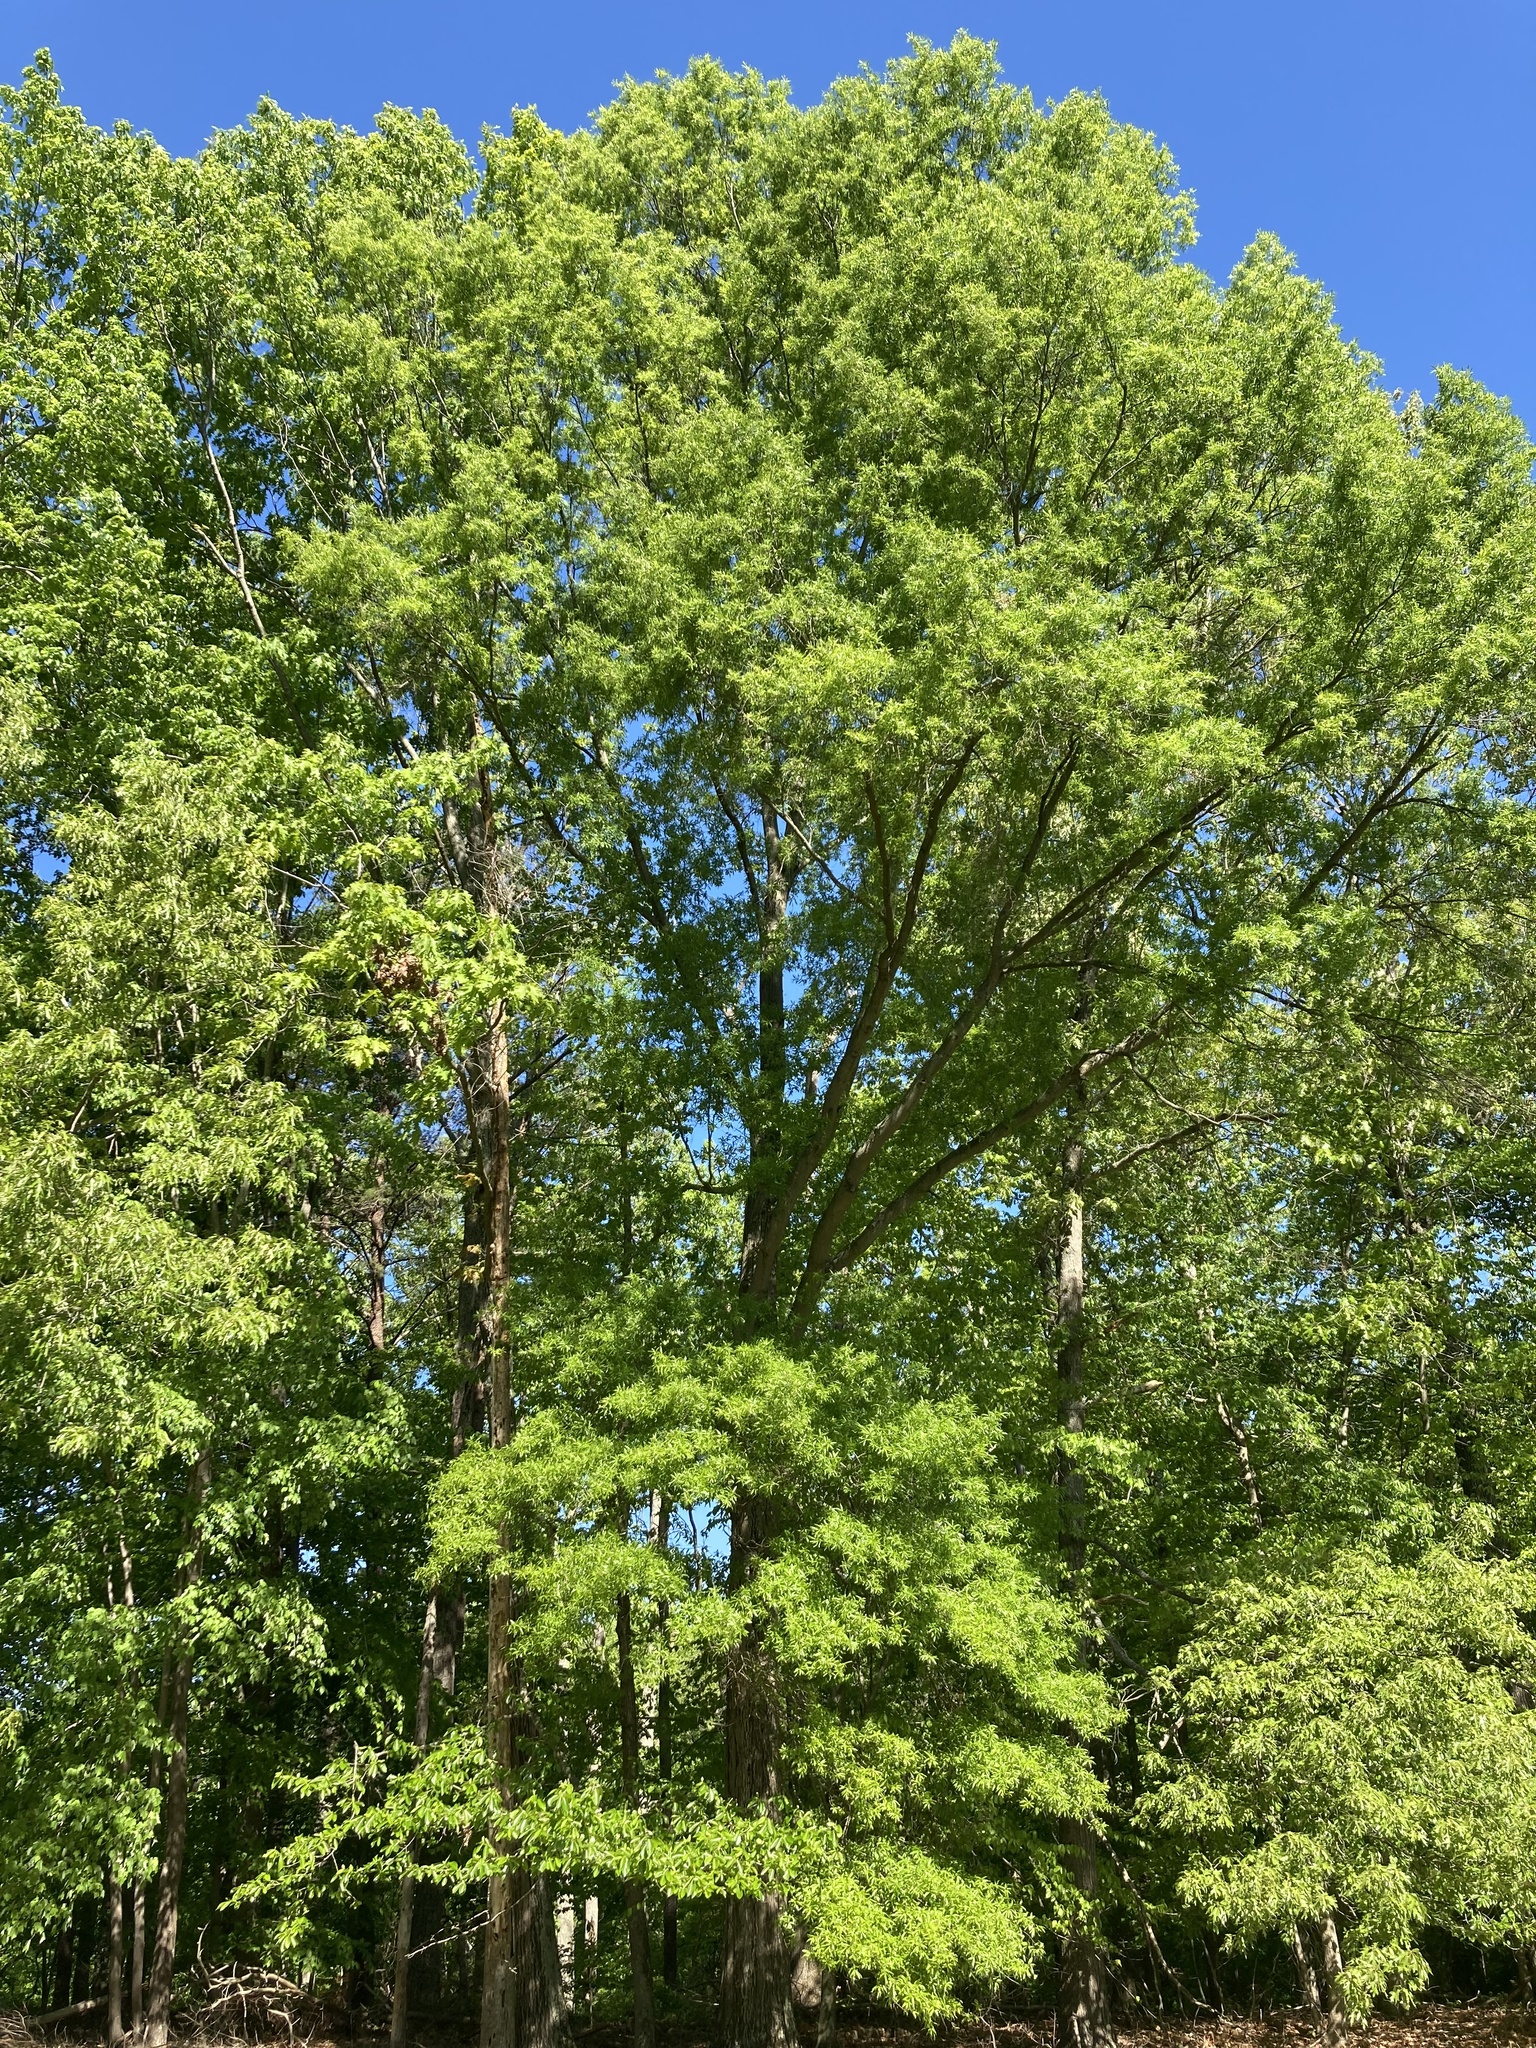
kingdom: Plantae
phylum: Tracheophyta
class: Magnoliopsida
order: Fagales
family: Fagaceae
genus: Quercus
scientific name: Quercus phellos
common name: Willow oak
